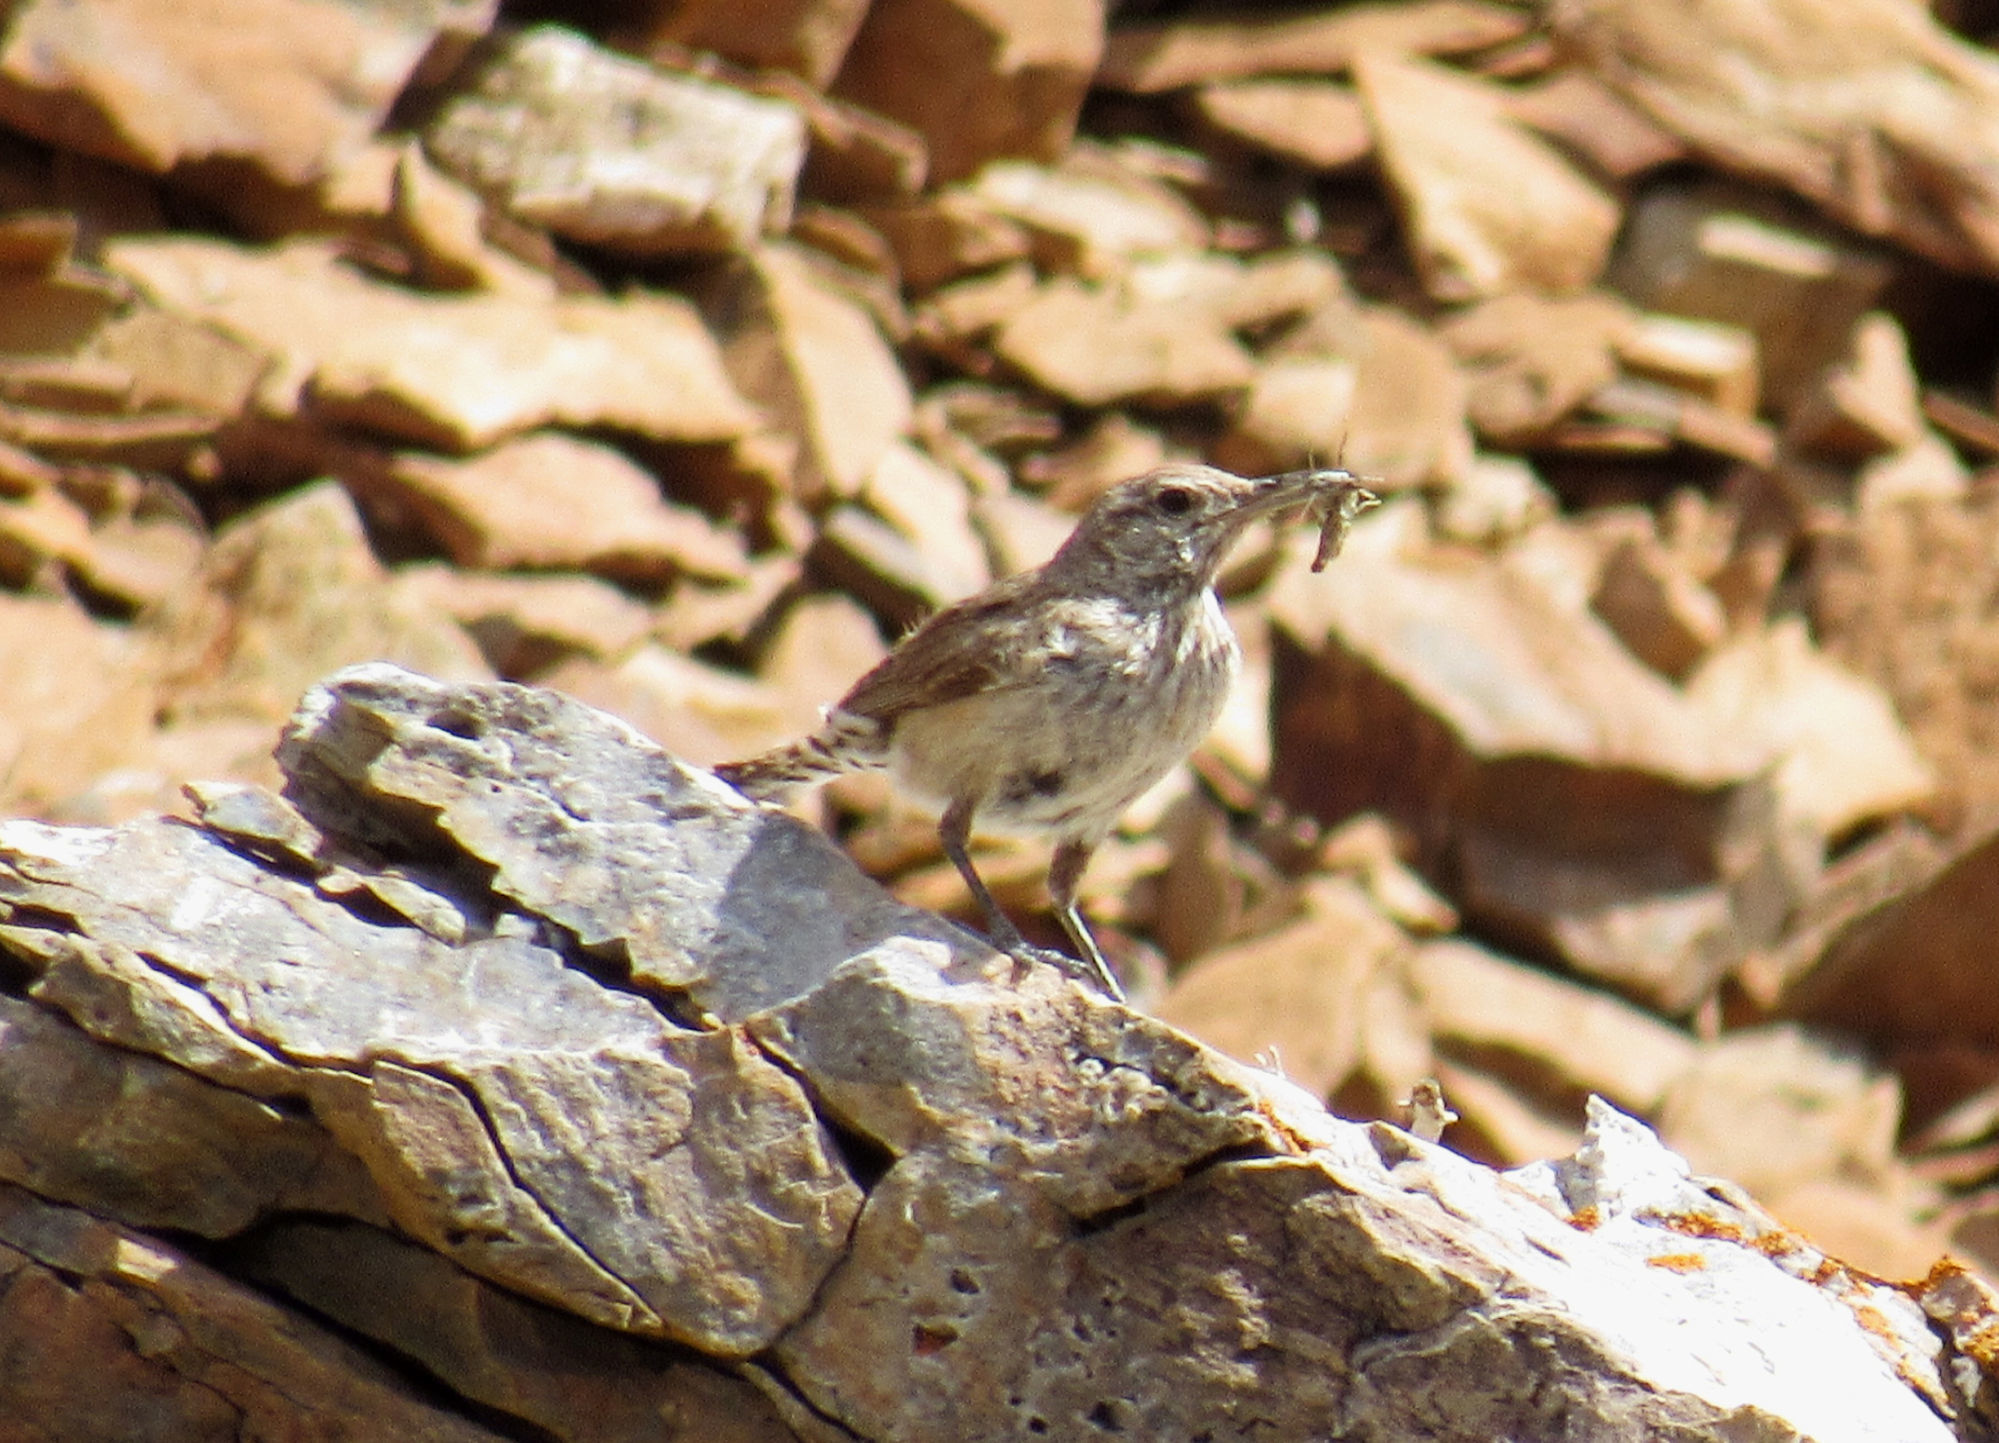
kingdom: Animalia
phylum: Chordata
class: Aves
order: Passeriformes
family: Troglodytidae
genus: Salpinctes
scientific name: Salpinctes obsoletus
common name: Rock wren
